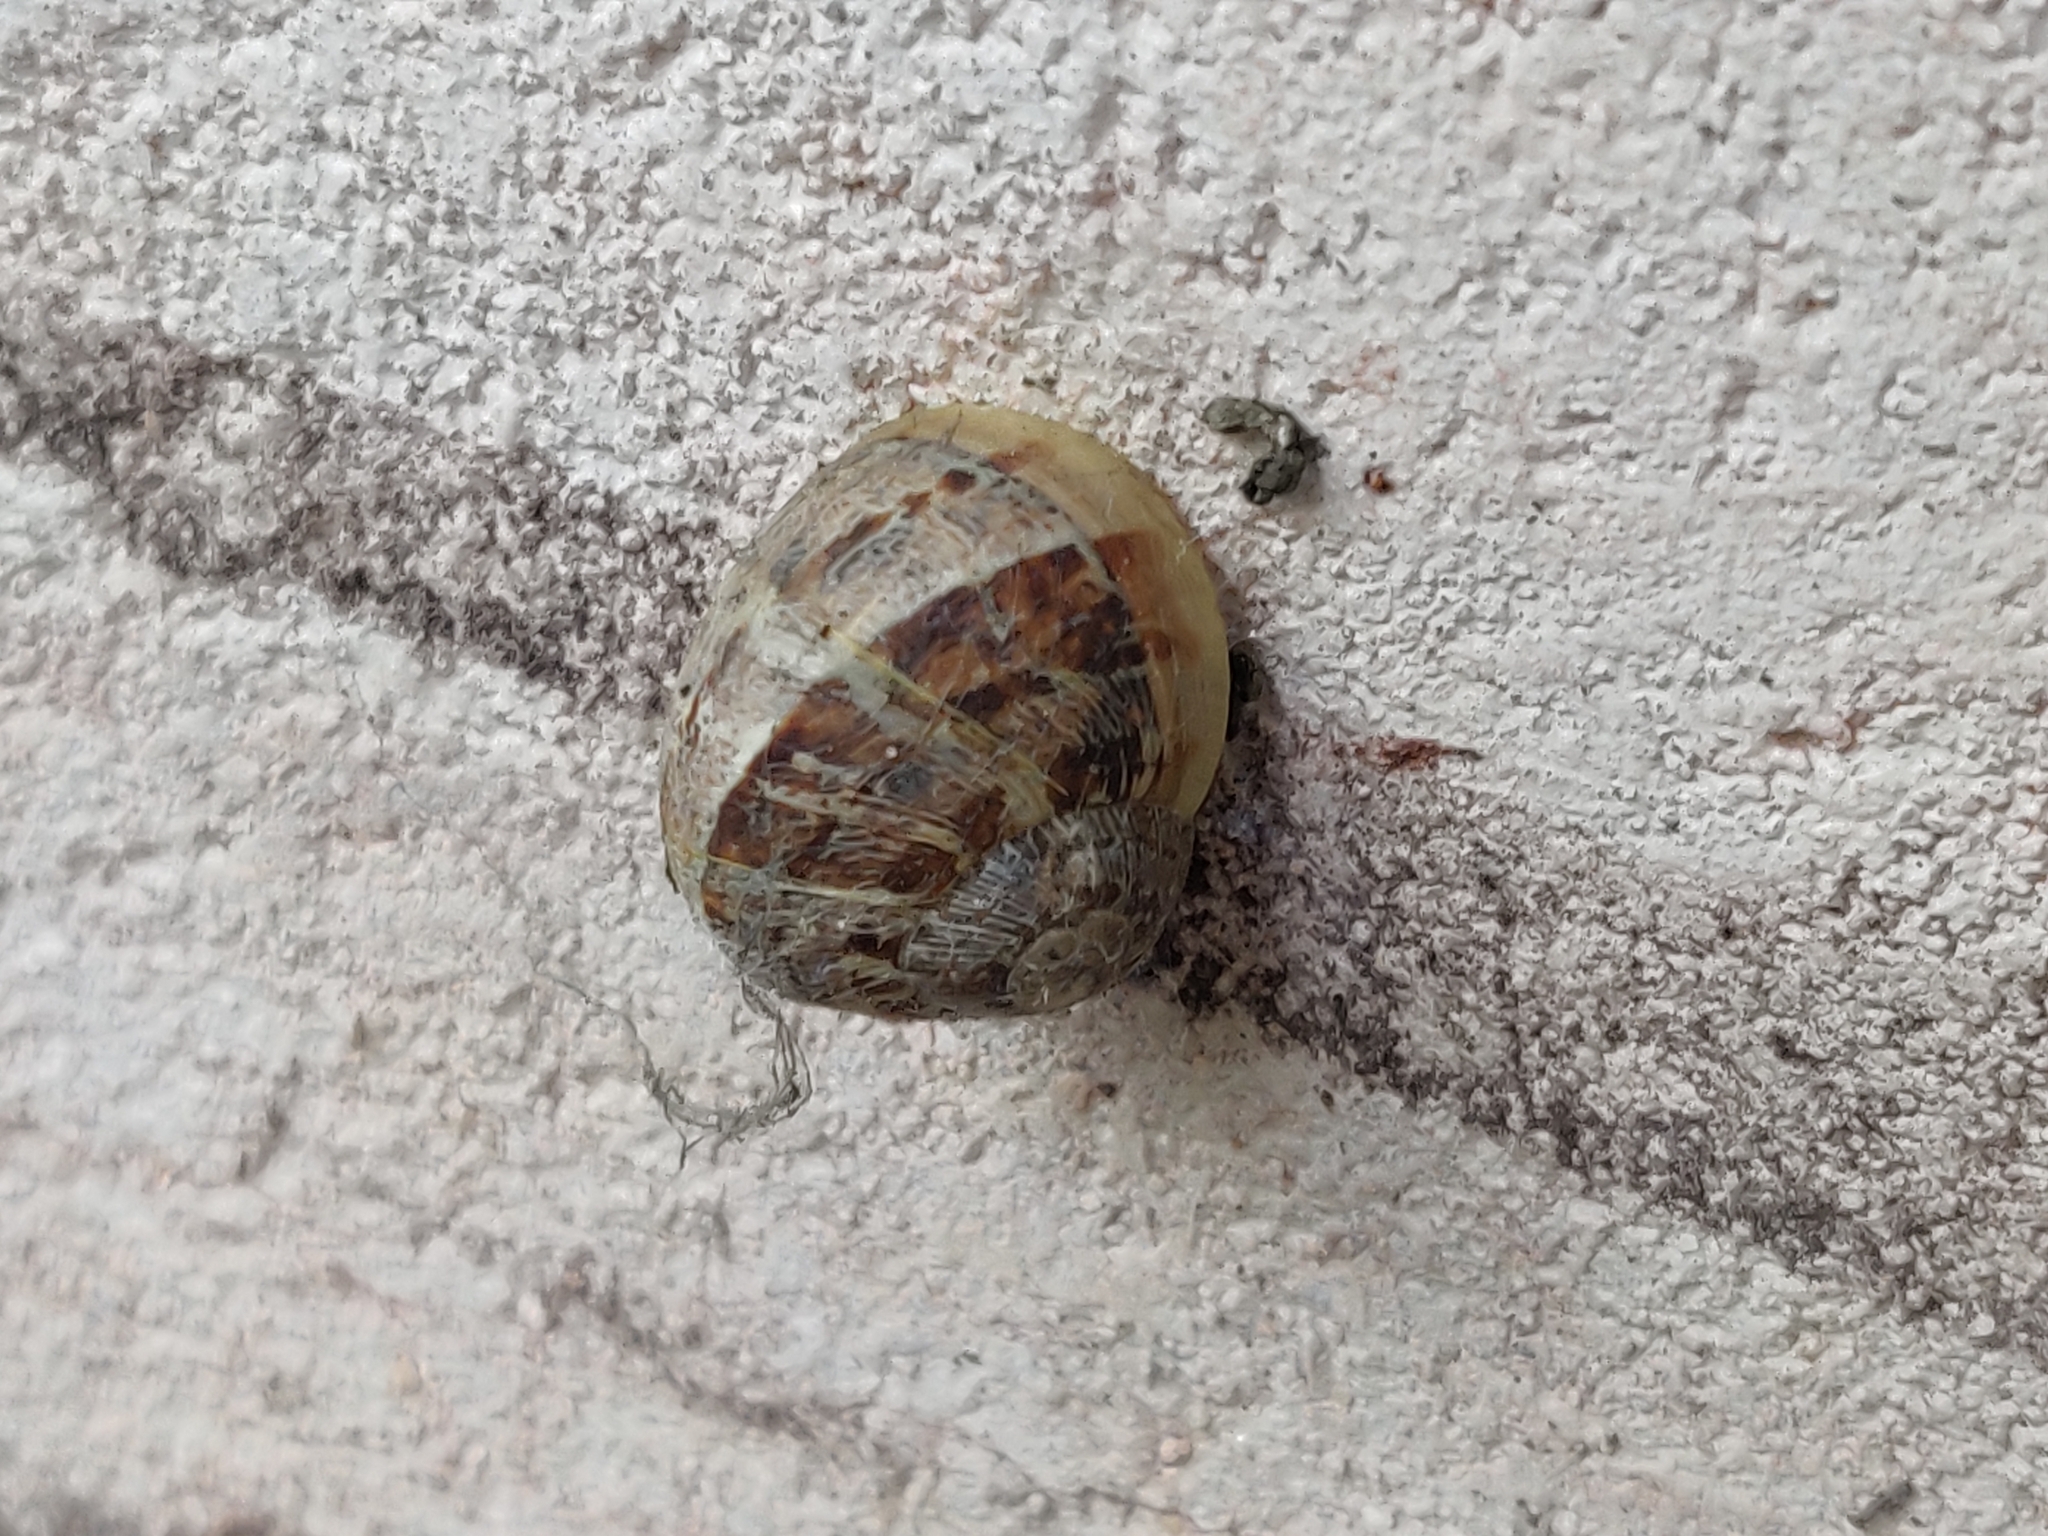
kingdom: Animalia
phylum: Mollusca
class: Gastropoda
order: Stylommatophora
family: Helicidae
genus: Cornu
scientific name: Cornu aspersum
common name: Brown garden snail
